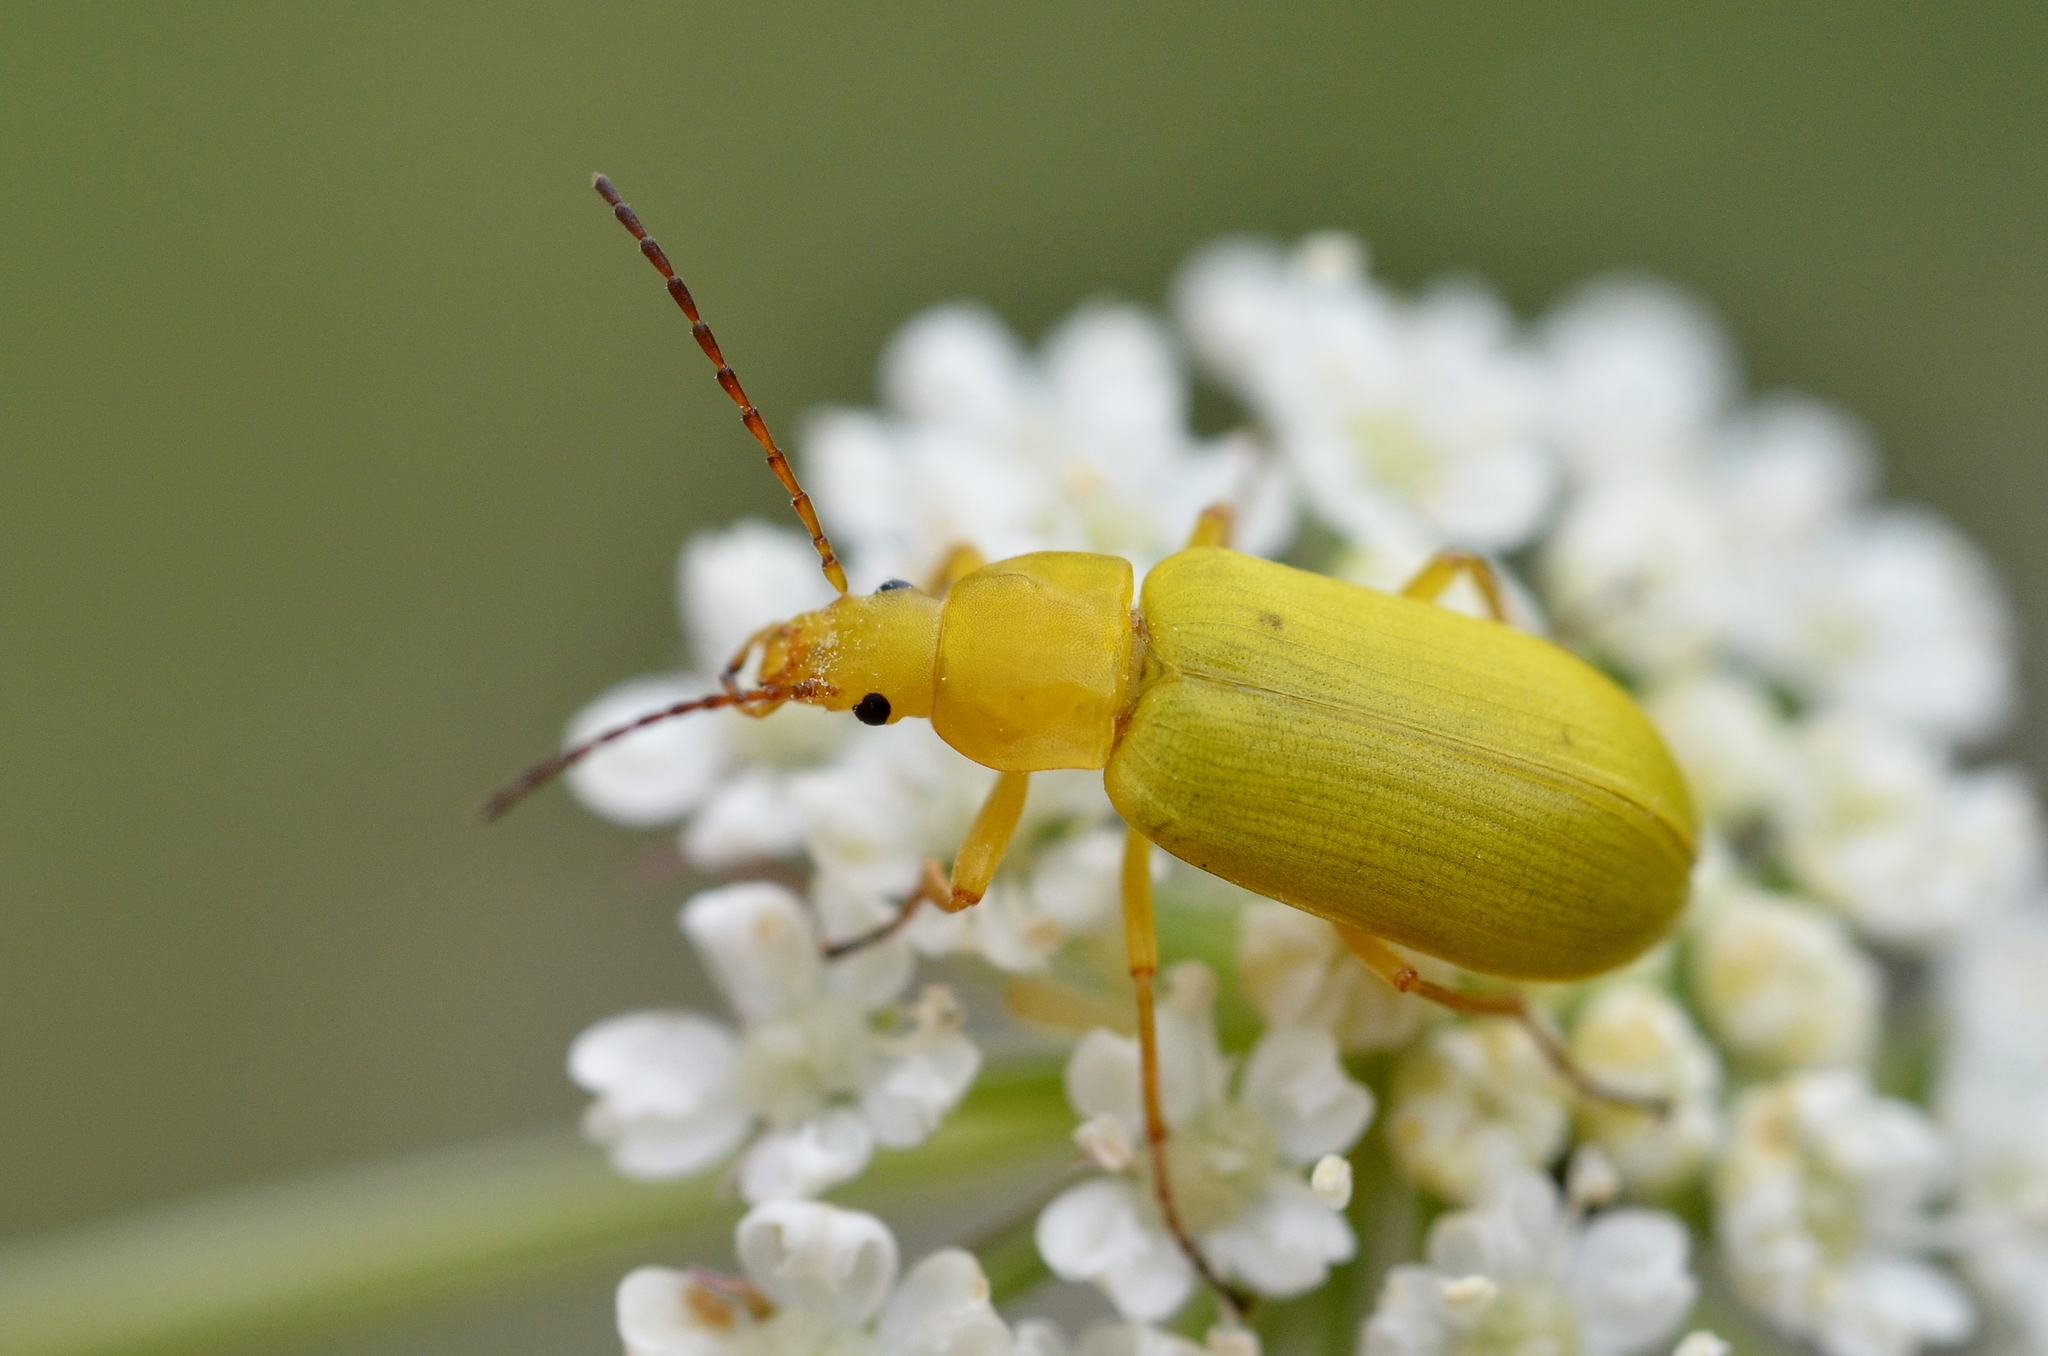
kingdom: Animalia
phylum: Arthropoda
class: Insecta
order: Coleoptera
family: Tenebrionidae
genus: Cteniopus
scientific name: Cteniopus sulphureus
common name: Sulphur beetle
